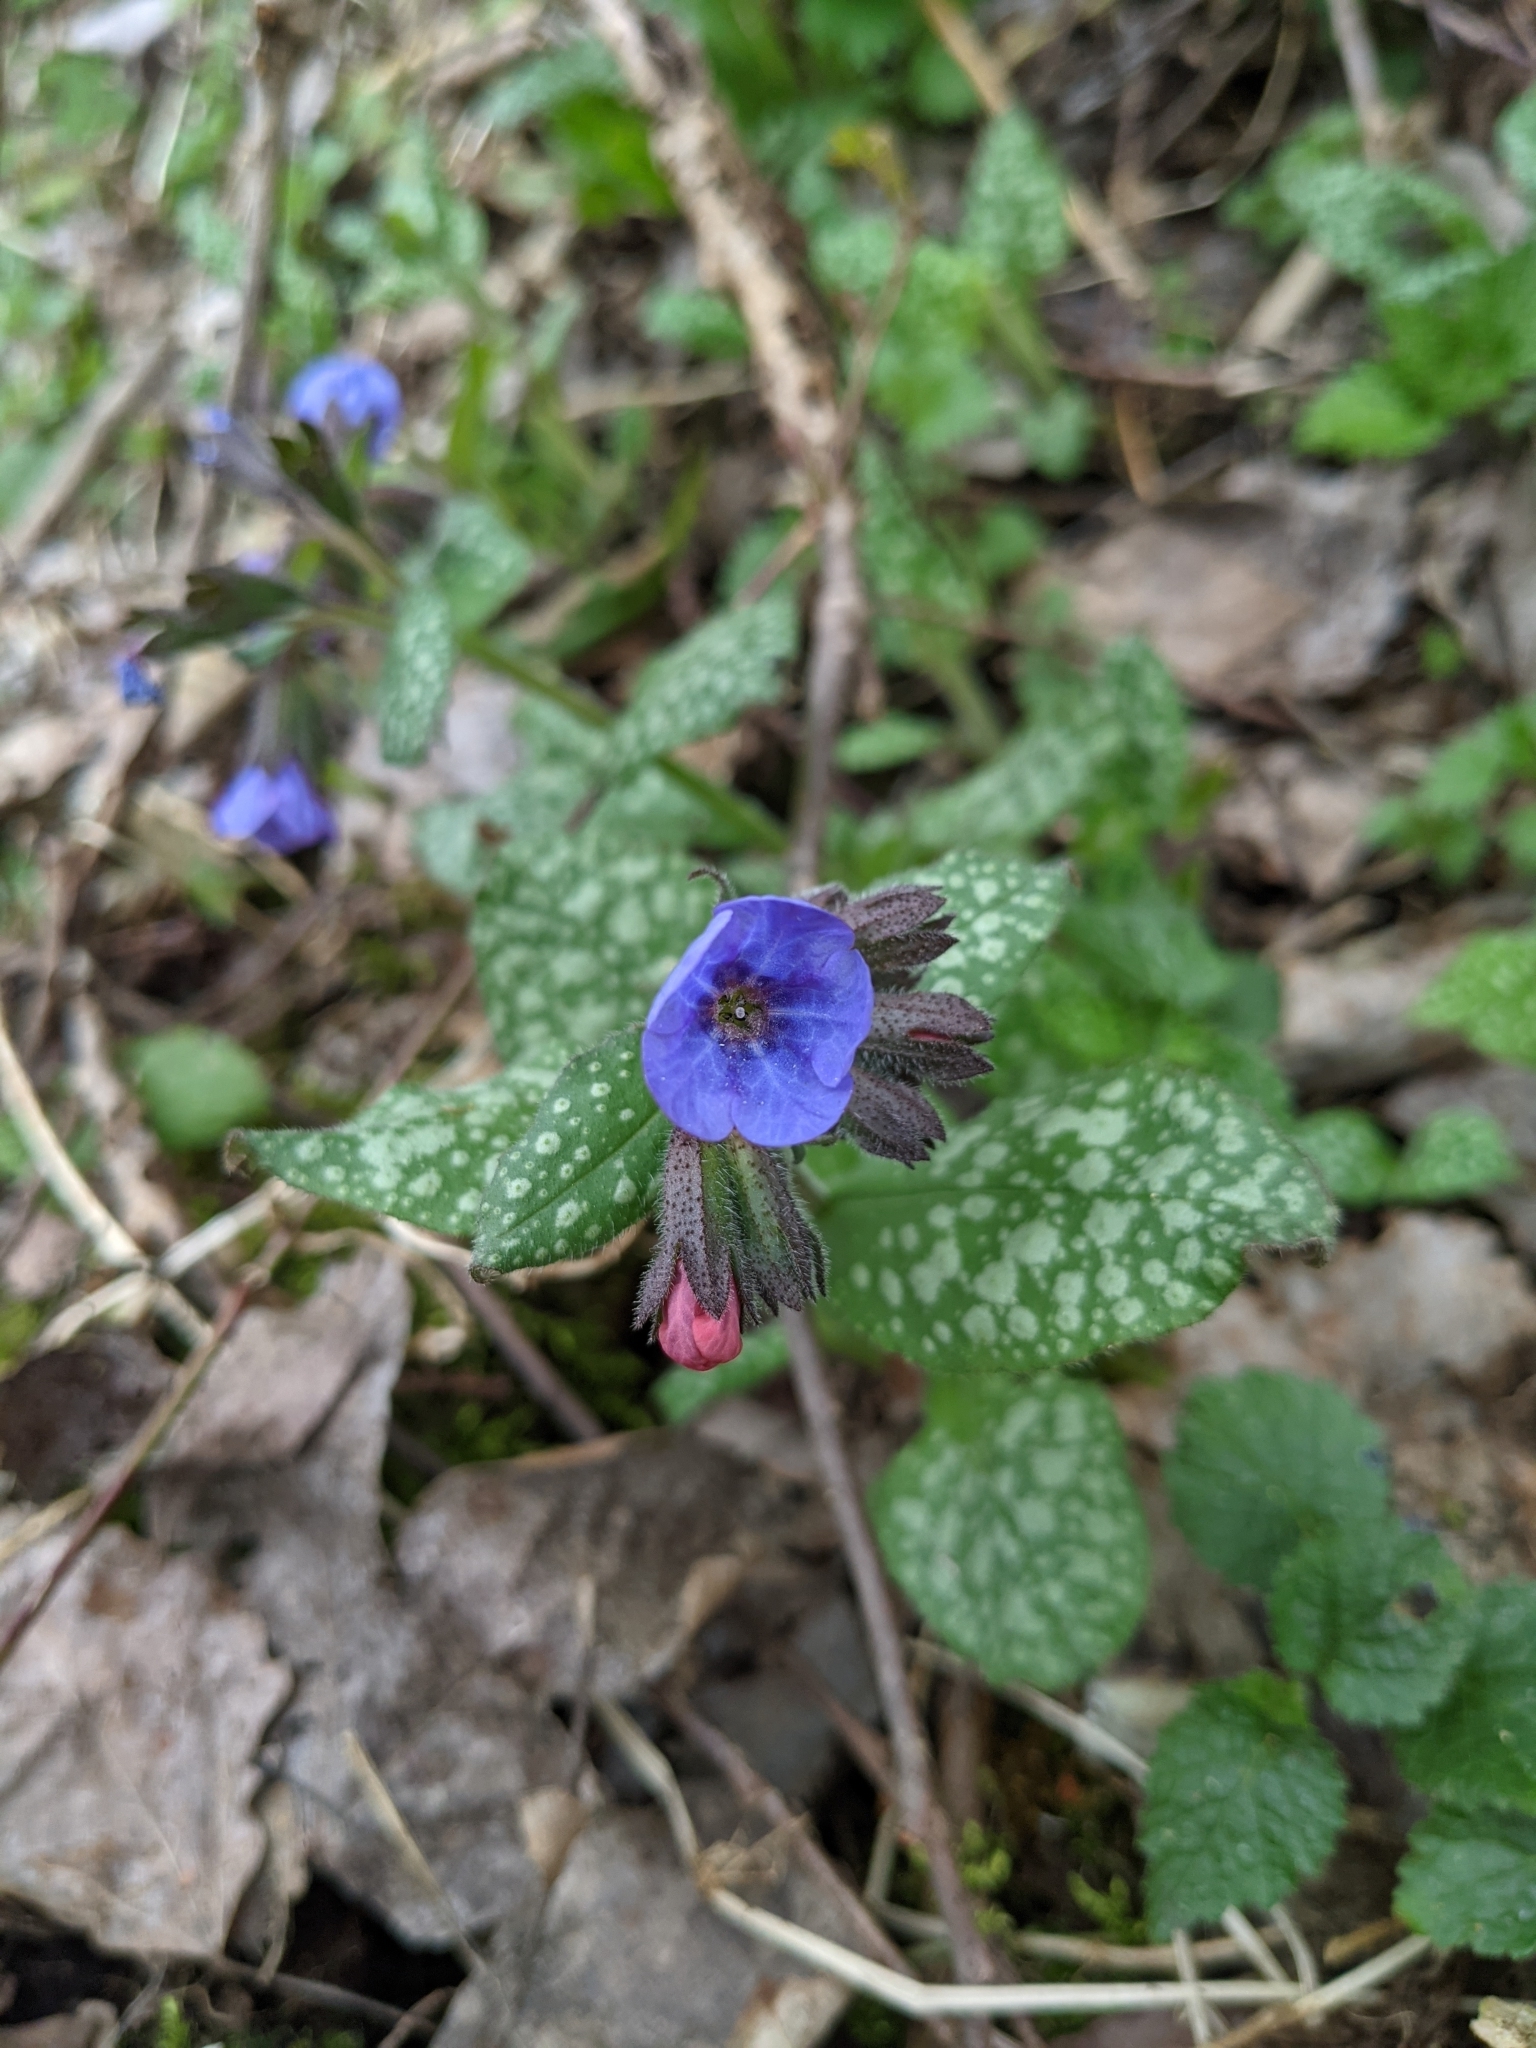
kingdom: Plantae
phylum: Tracheophyta
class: Magnoliopsida
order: Boraginales
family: Boraginaceae
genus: Pulmonaria
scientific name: Pulmonaria officinalis
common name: Lungwort
